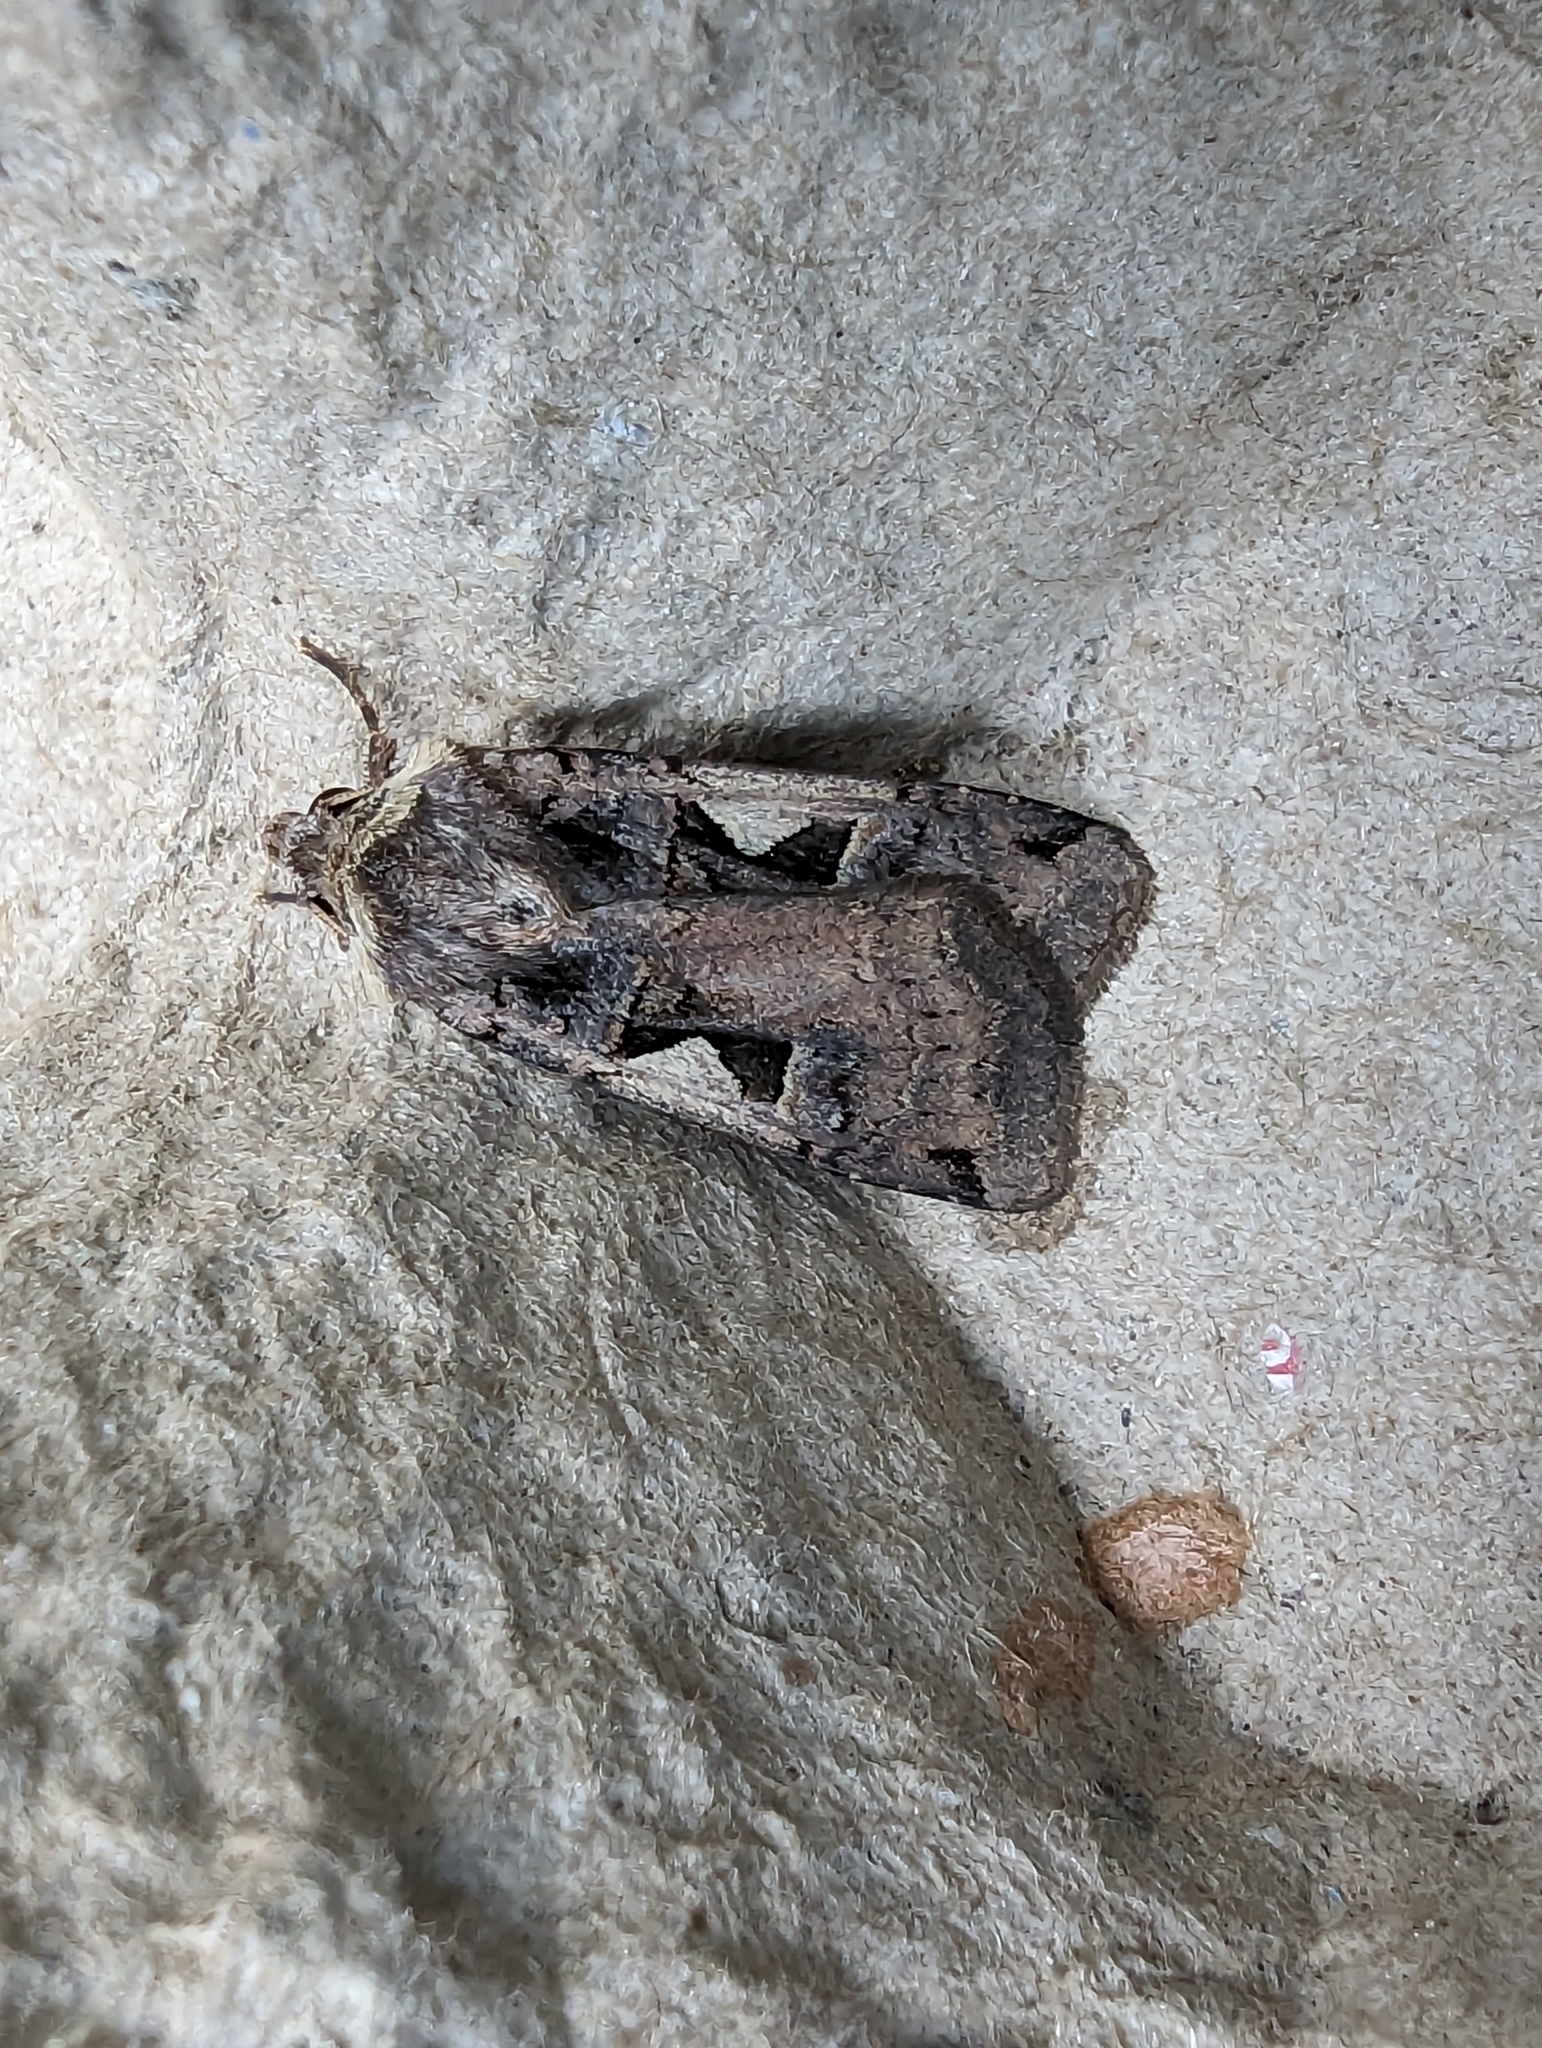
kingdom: Animalia
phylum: Arthropoda
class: Insecta
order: Lepidoptera
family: Noctuidae
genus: Xestia
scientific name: Xestia c-nigrum
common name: Setaceous hebrew character
